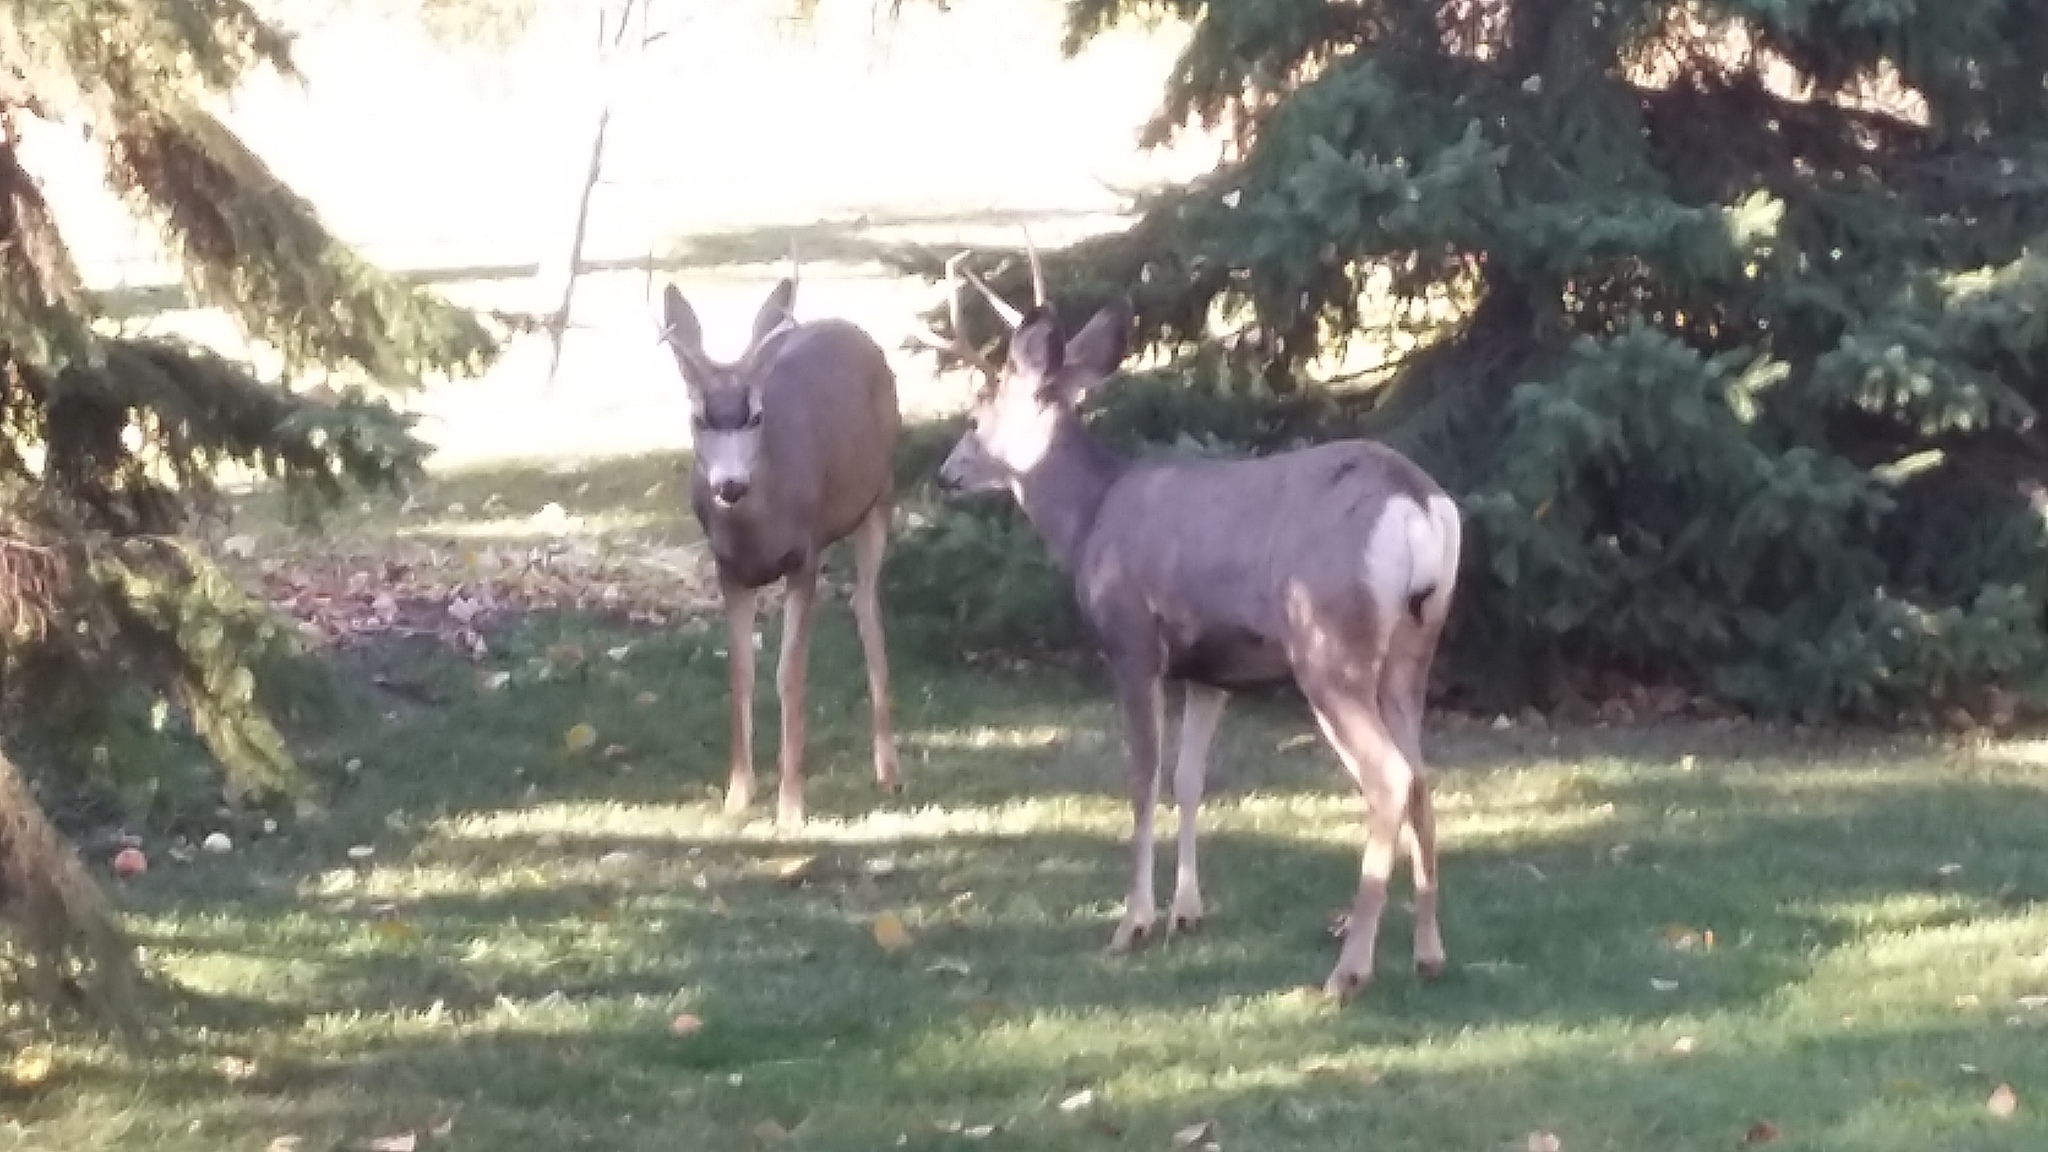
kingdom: Animalia
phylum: Chordata
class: Mammalia
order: Artiodactyla
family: Cervidae
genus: Odocoileus
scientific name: Odocoileus hemionus
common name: Mule deer
